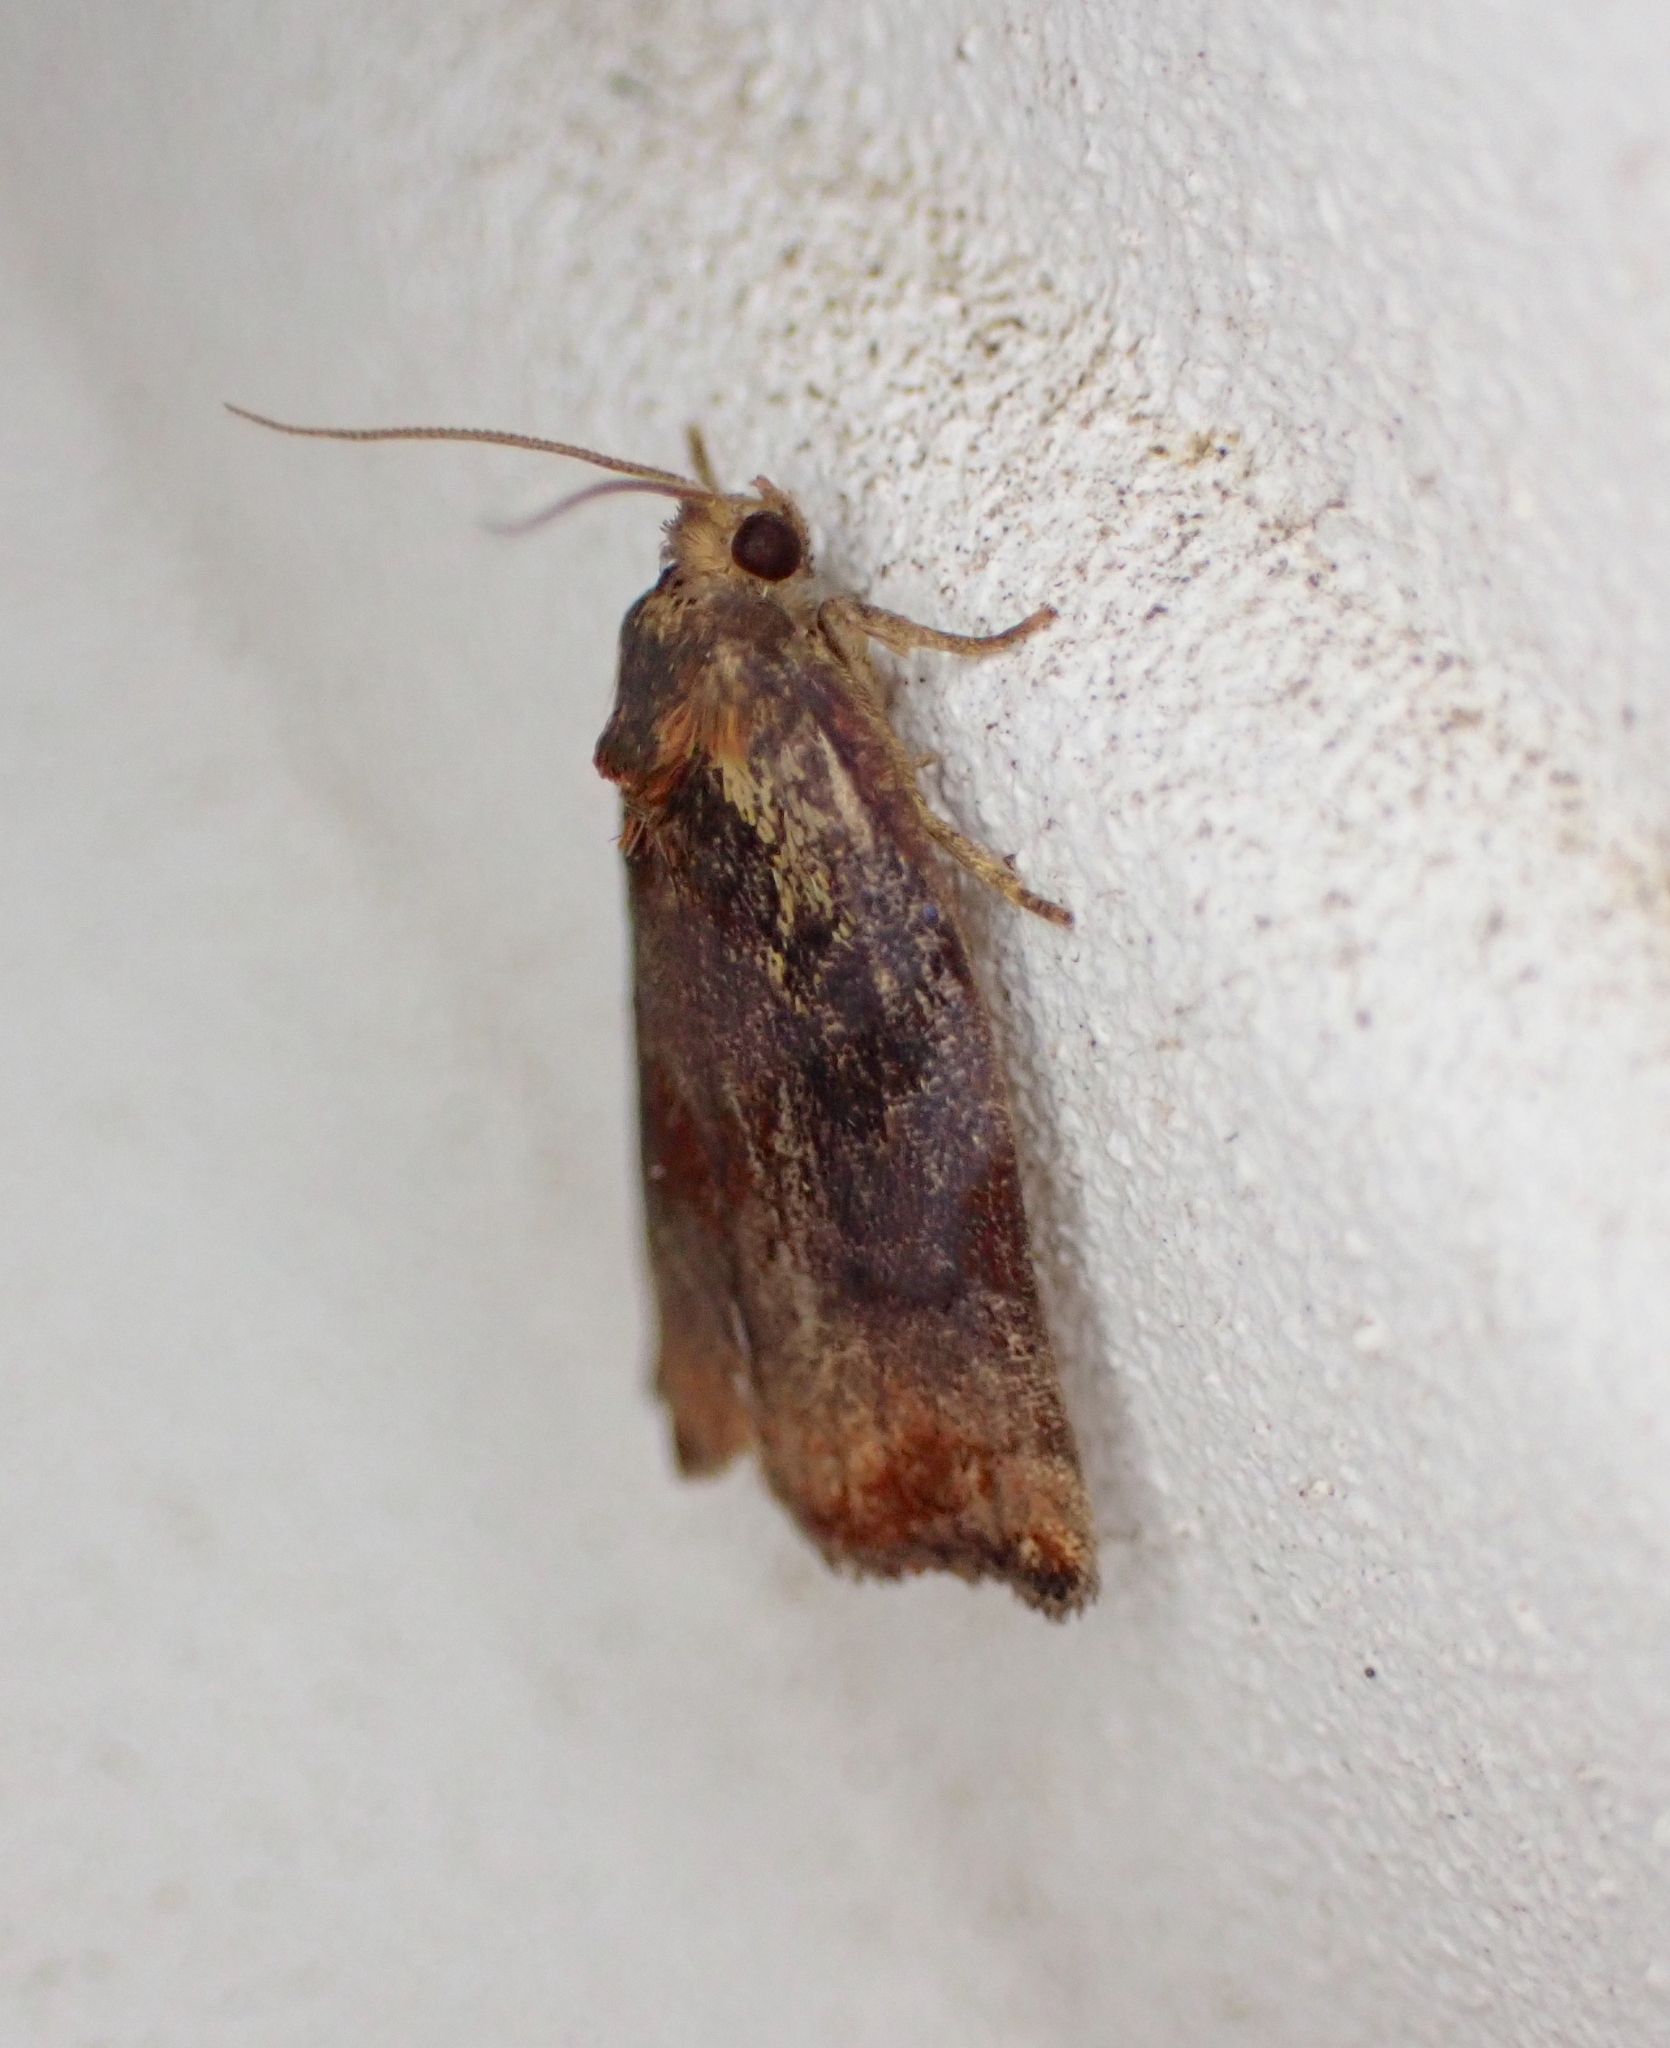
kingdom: Animalia
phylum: Arthropoda
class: Insecta
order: Lepidoptera
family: Tortricidae
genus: Archips
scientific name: Archips podana
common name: Large fruit-tree tortrix
